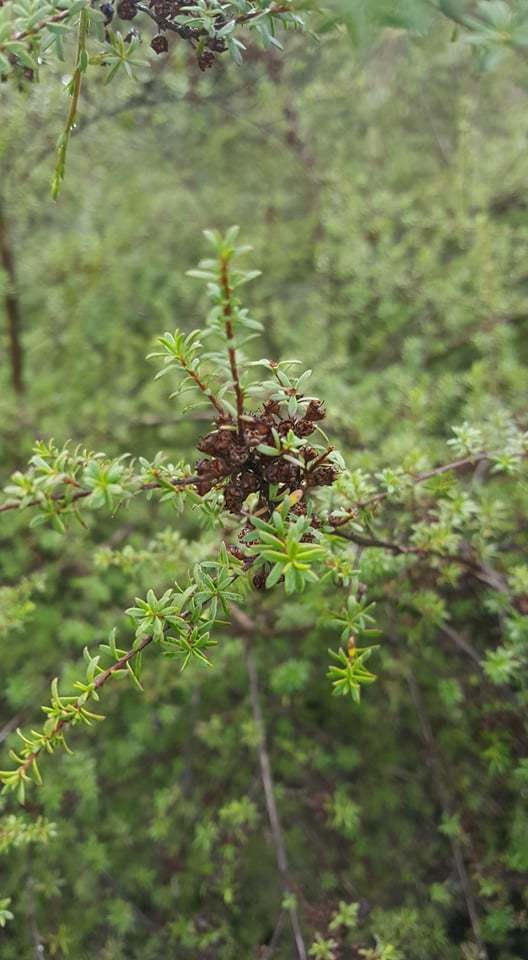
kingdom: Plantae
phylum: Tracheophyta
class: Magnoliopsida
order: Myrtales
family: Myrtaceae
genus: Kunzea
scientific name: Kunzea tenuicaulis
